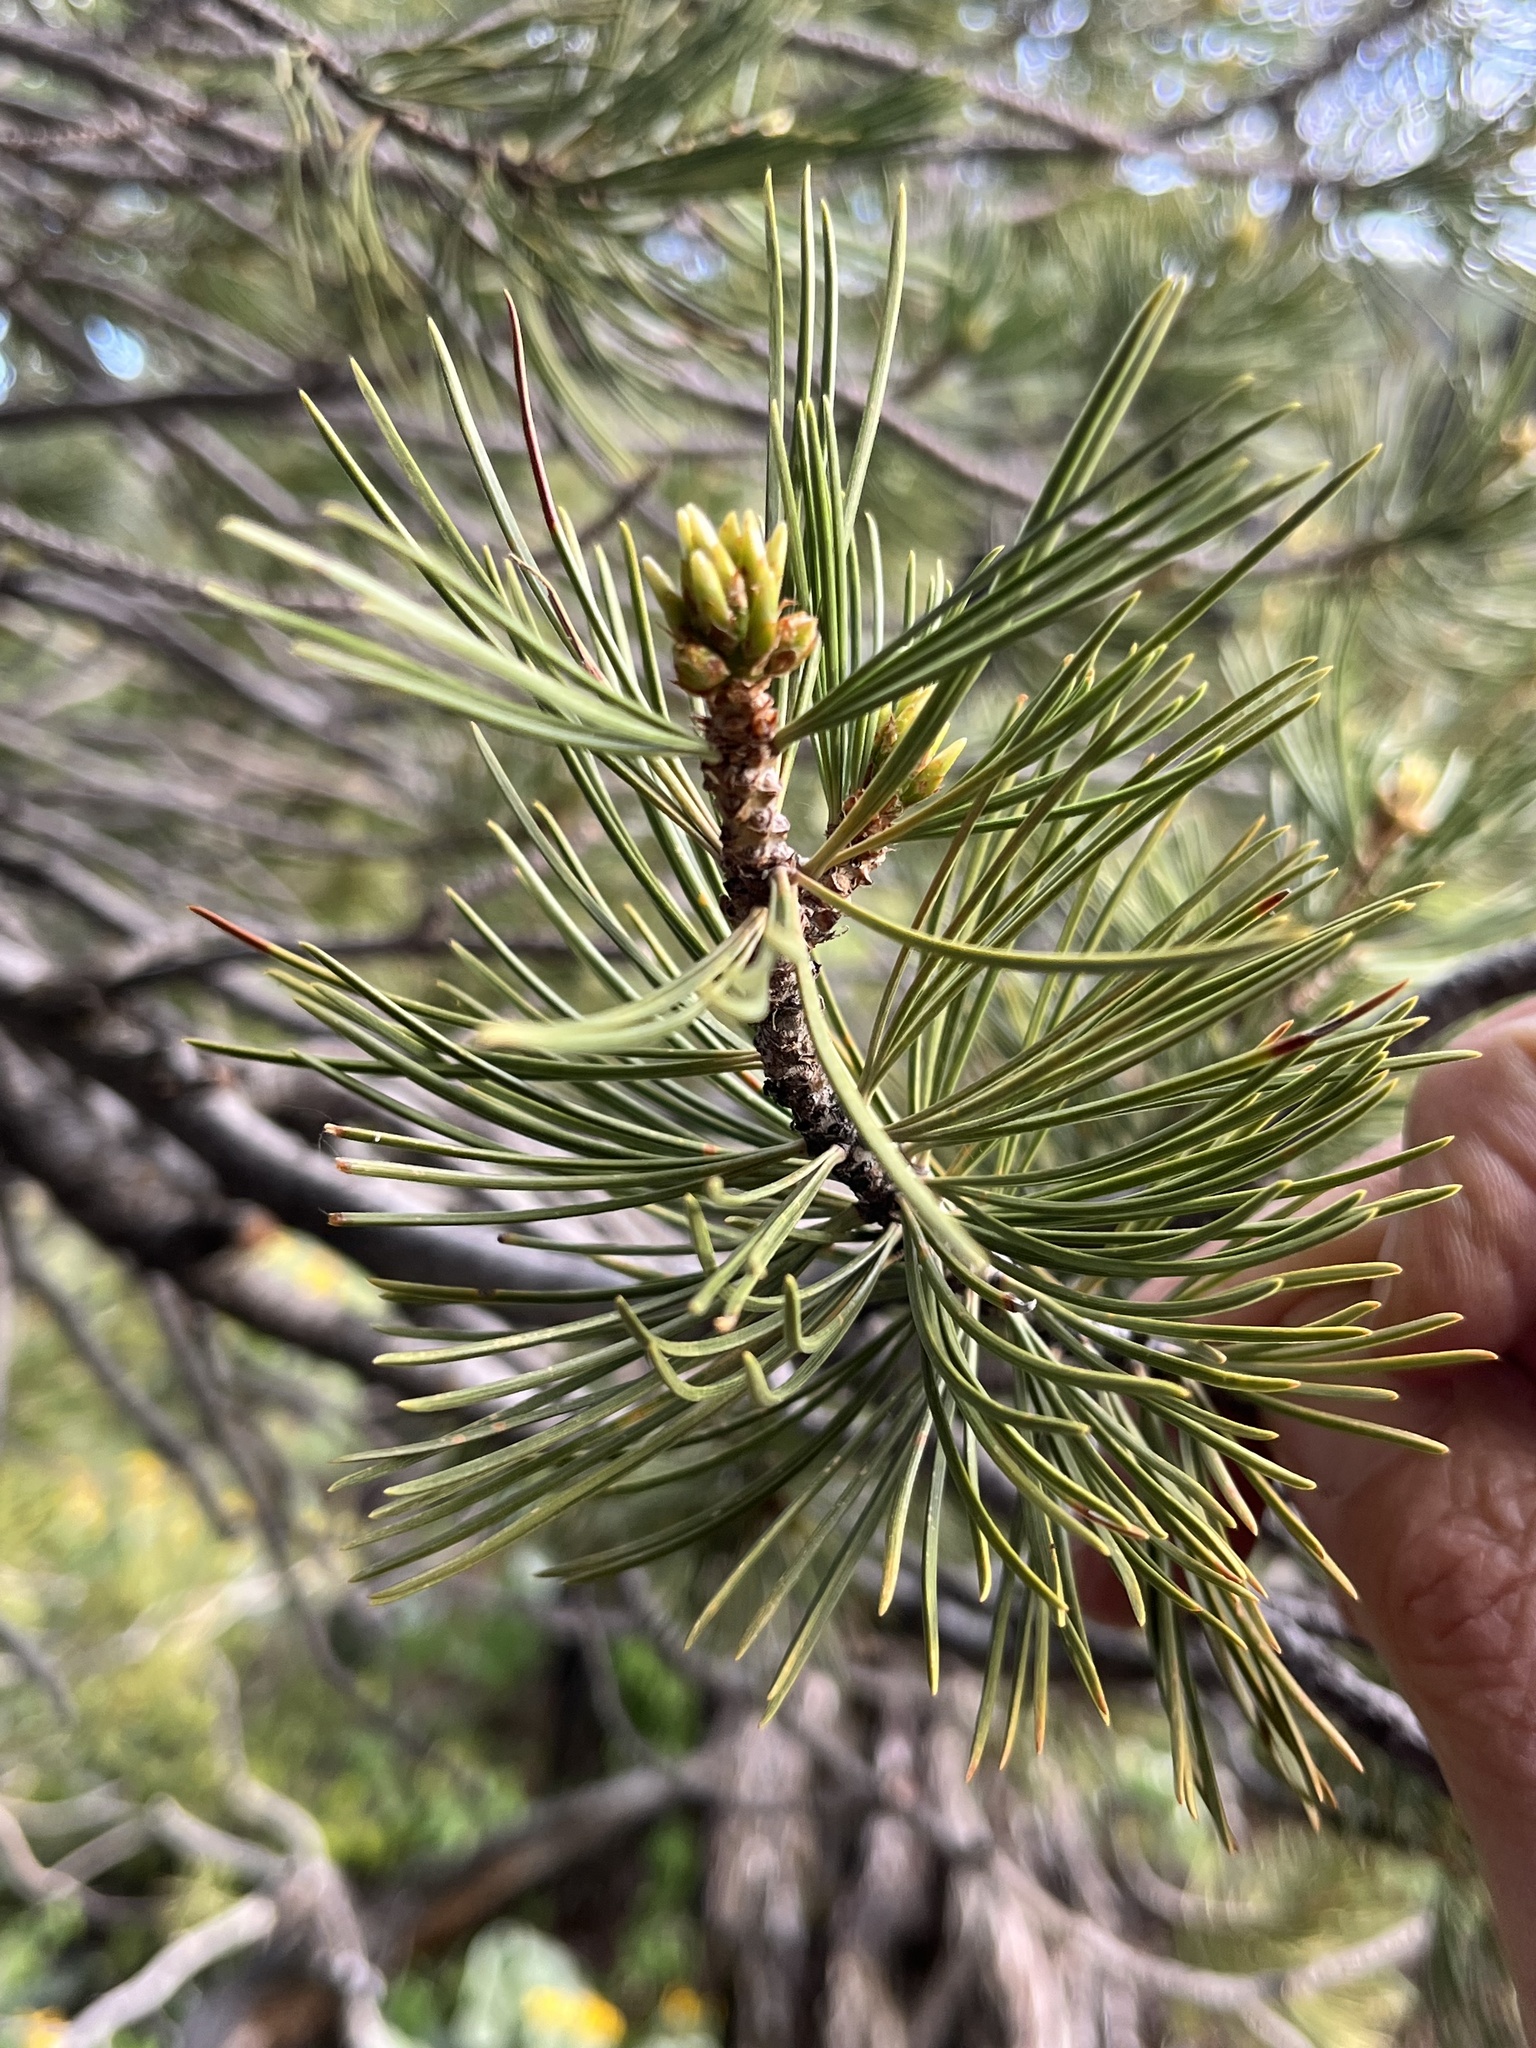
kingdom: Plantae
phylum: Tracheophyta
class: Pinopsida
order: Pinales
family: Pinaceae
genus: Pinus
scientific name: Pinus flexilis
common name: Limber pine
